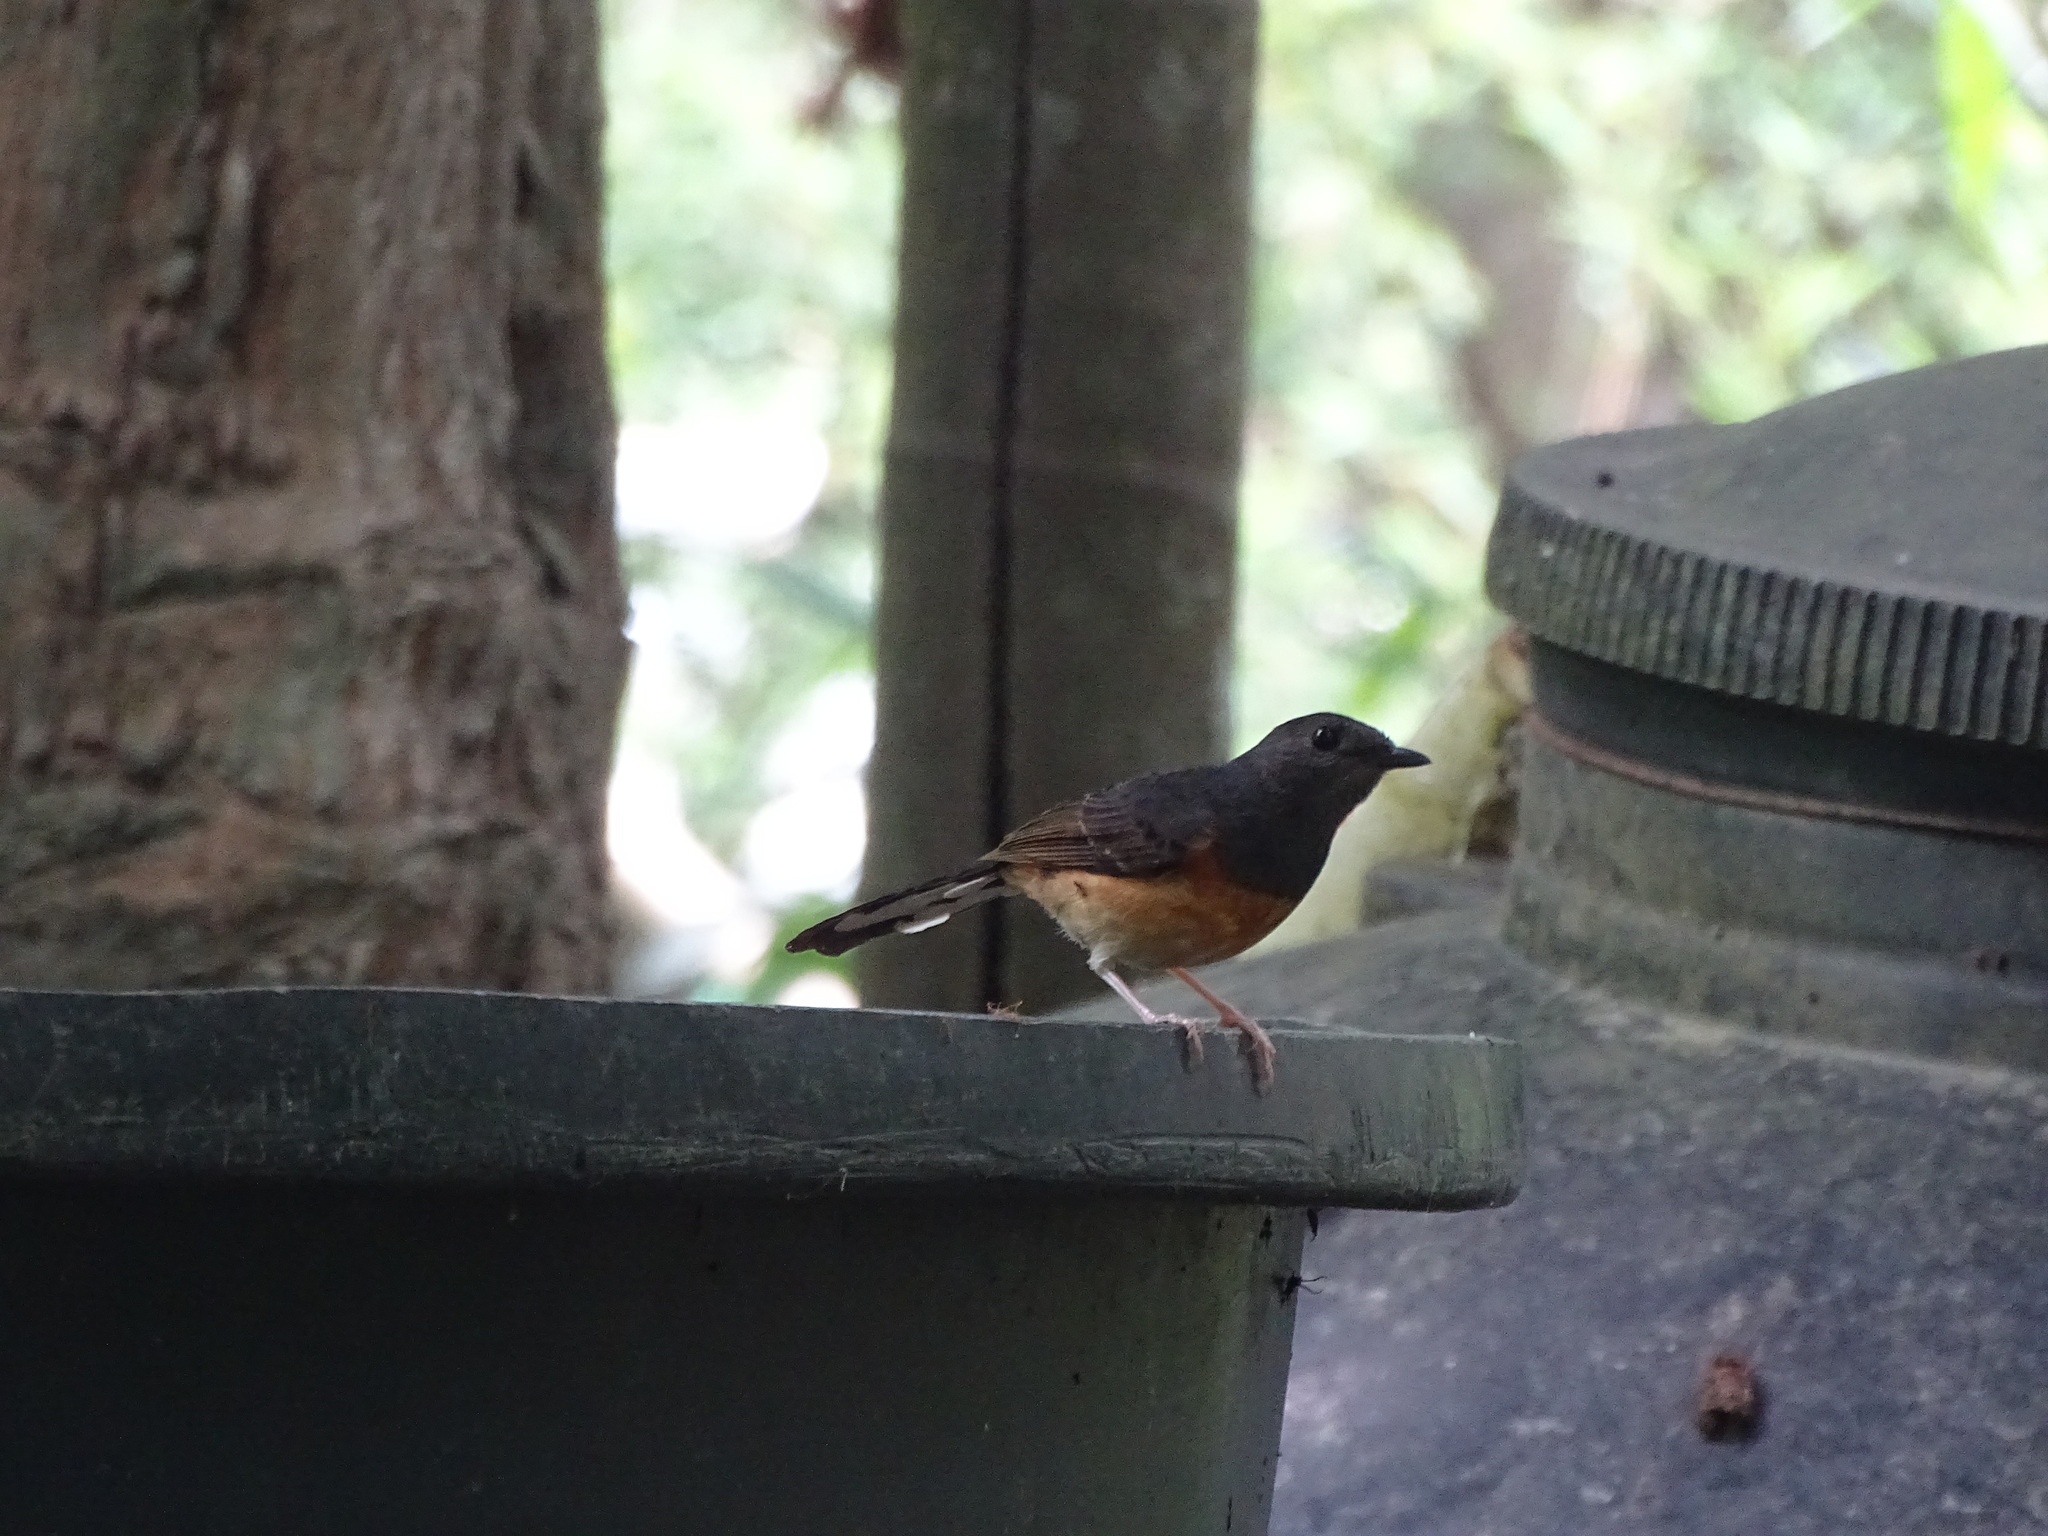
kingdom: Animalia
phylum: Chordata
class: Aves
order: Passeriformes
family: Muscicapidae
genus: Copsychus
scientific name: Copsychus malabaricus
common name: White-rumped shama
